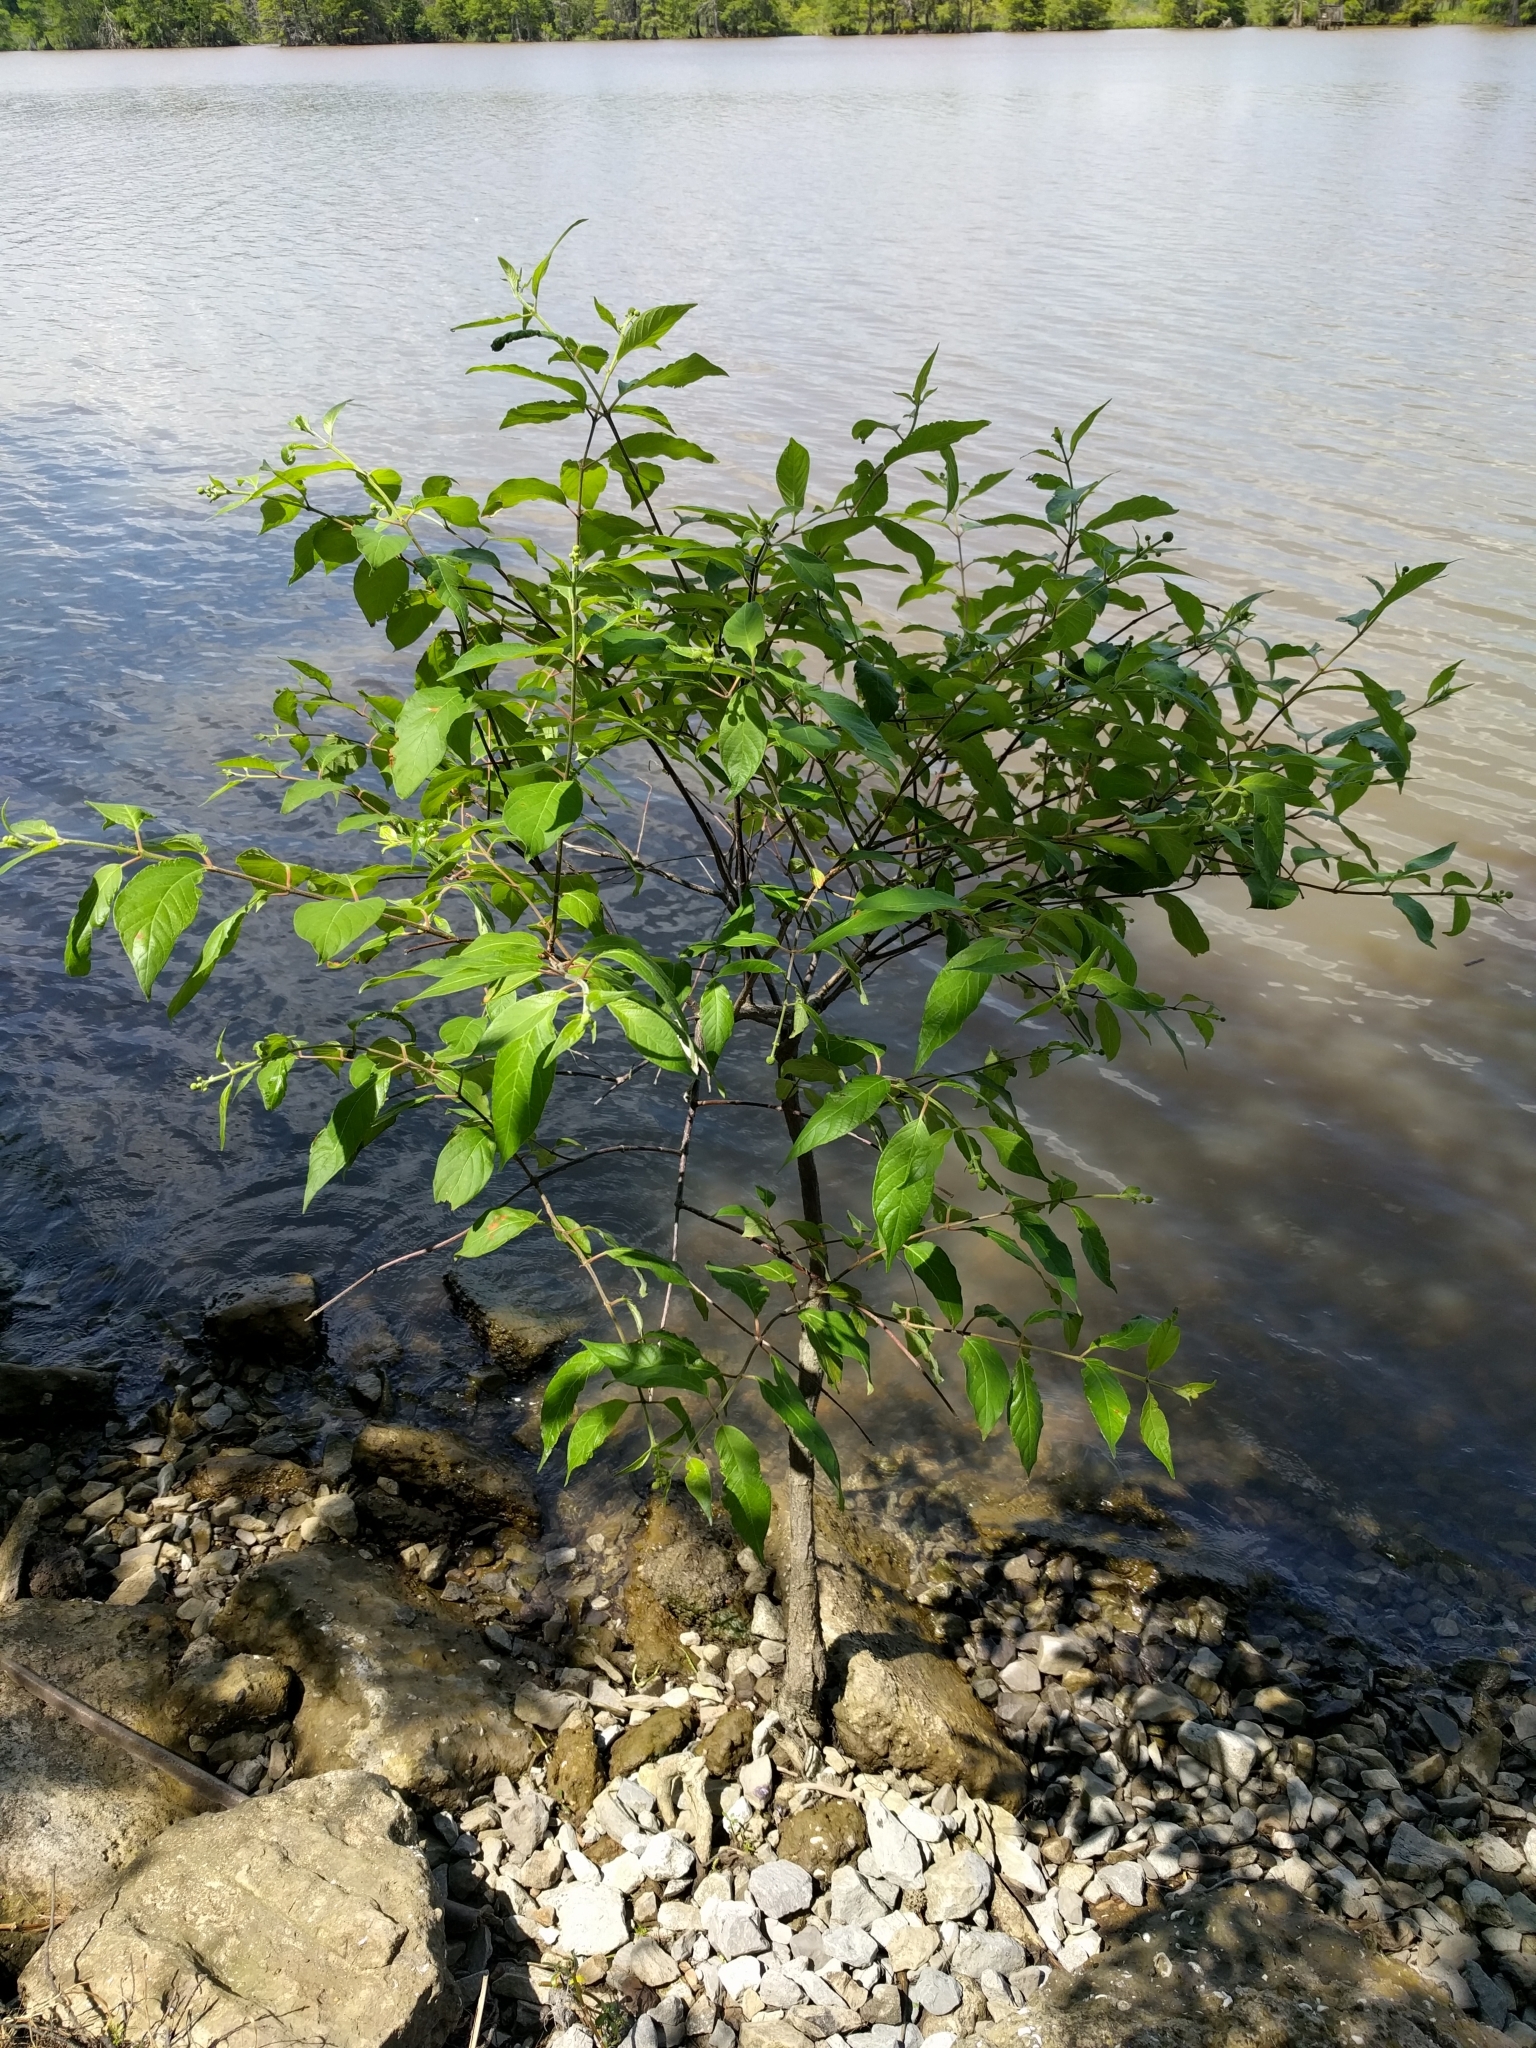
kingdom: Plantae
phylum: Tracheophyta
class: Magnoliopsida
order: Gentianales
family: Rubiaceae
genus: Cephalanthus
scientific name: Cephalanthus occidentalis
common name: Button-willow
